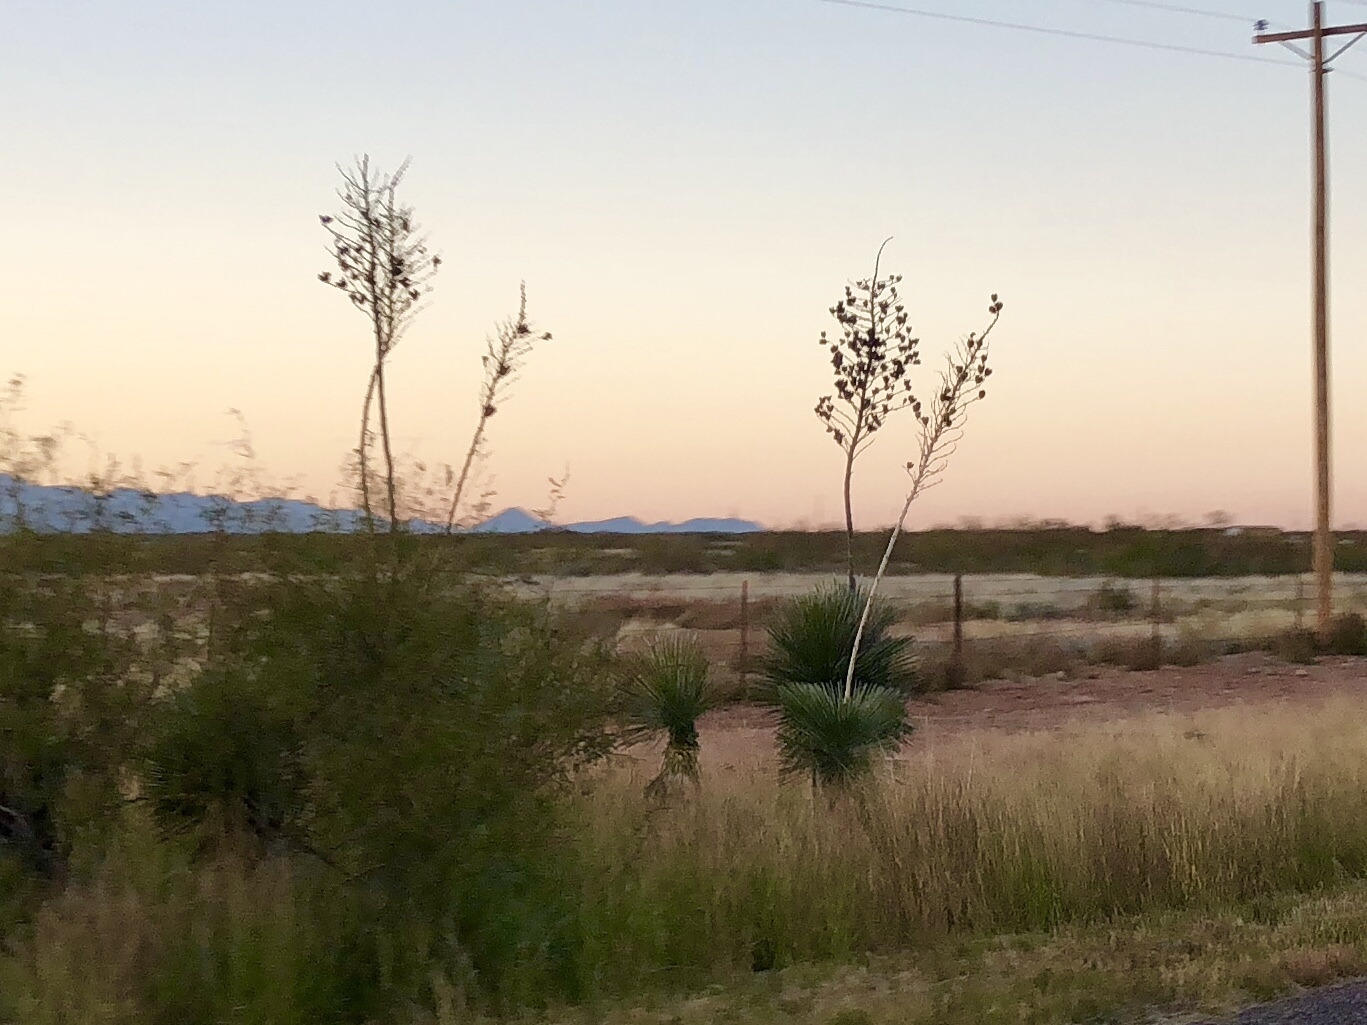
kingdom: Plantae
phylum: Tracheophyta
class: Liliopsida
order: Asparagales
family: Asparagaceae
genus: Yucca
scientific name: Yucca elata
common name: Palmella
